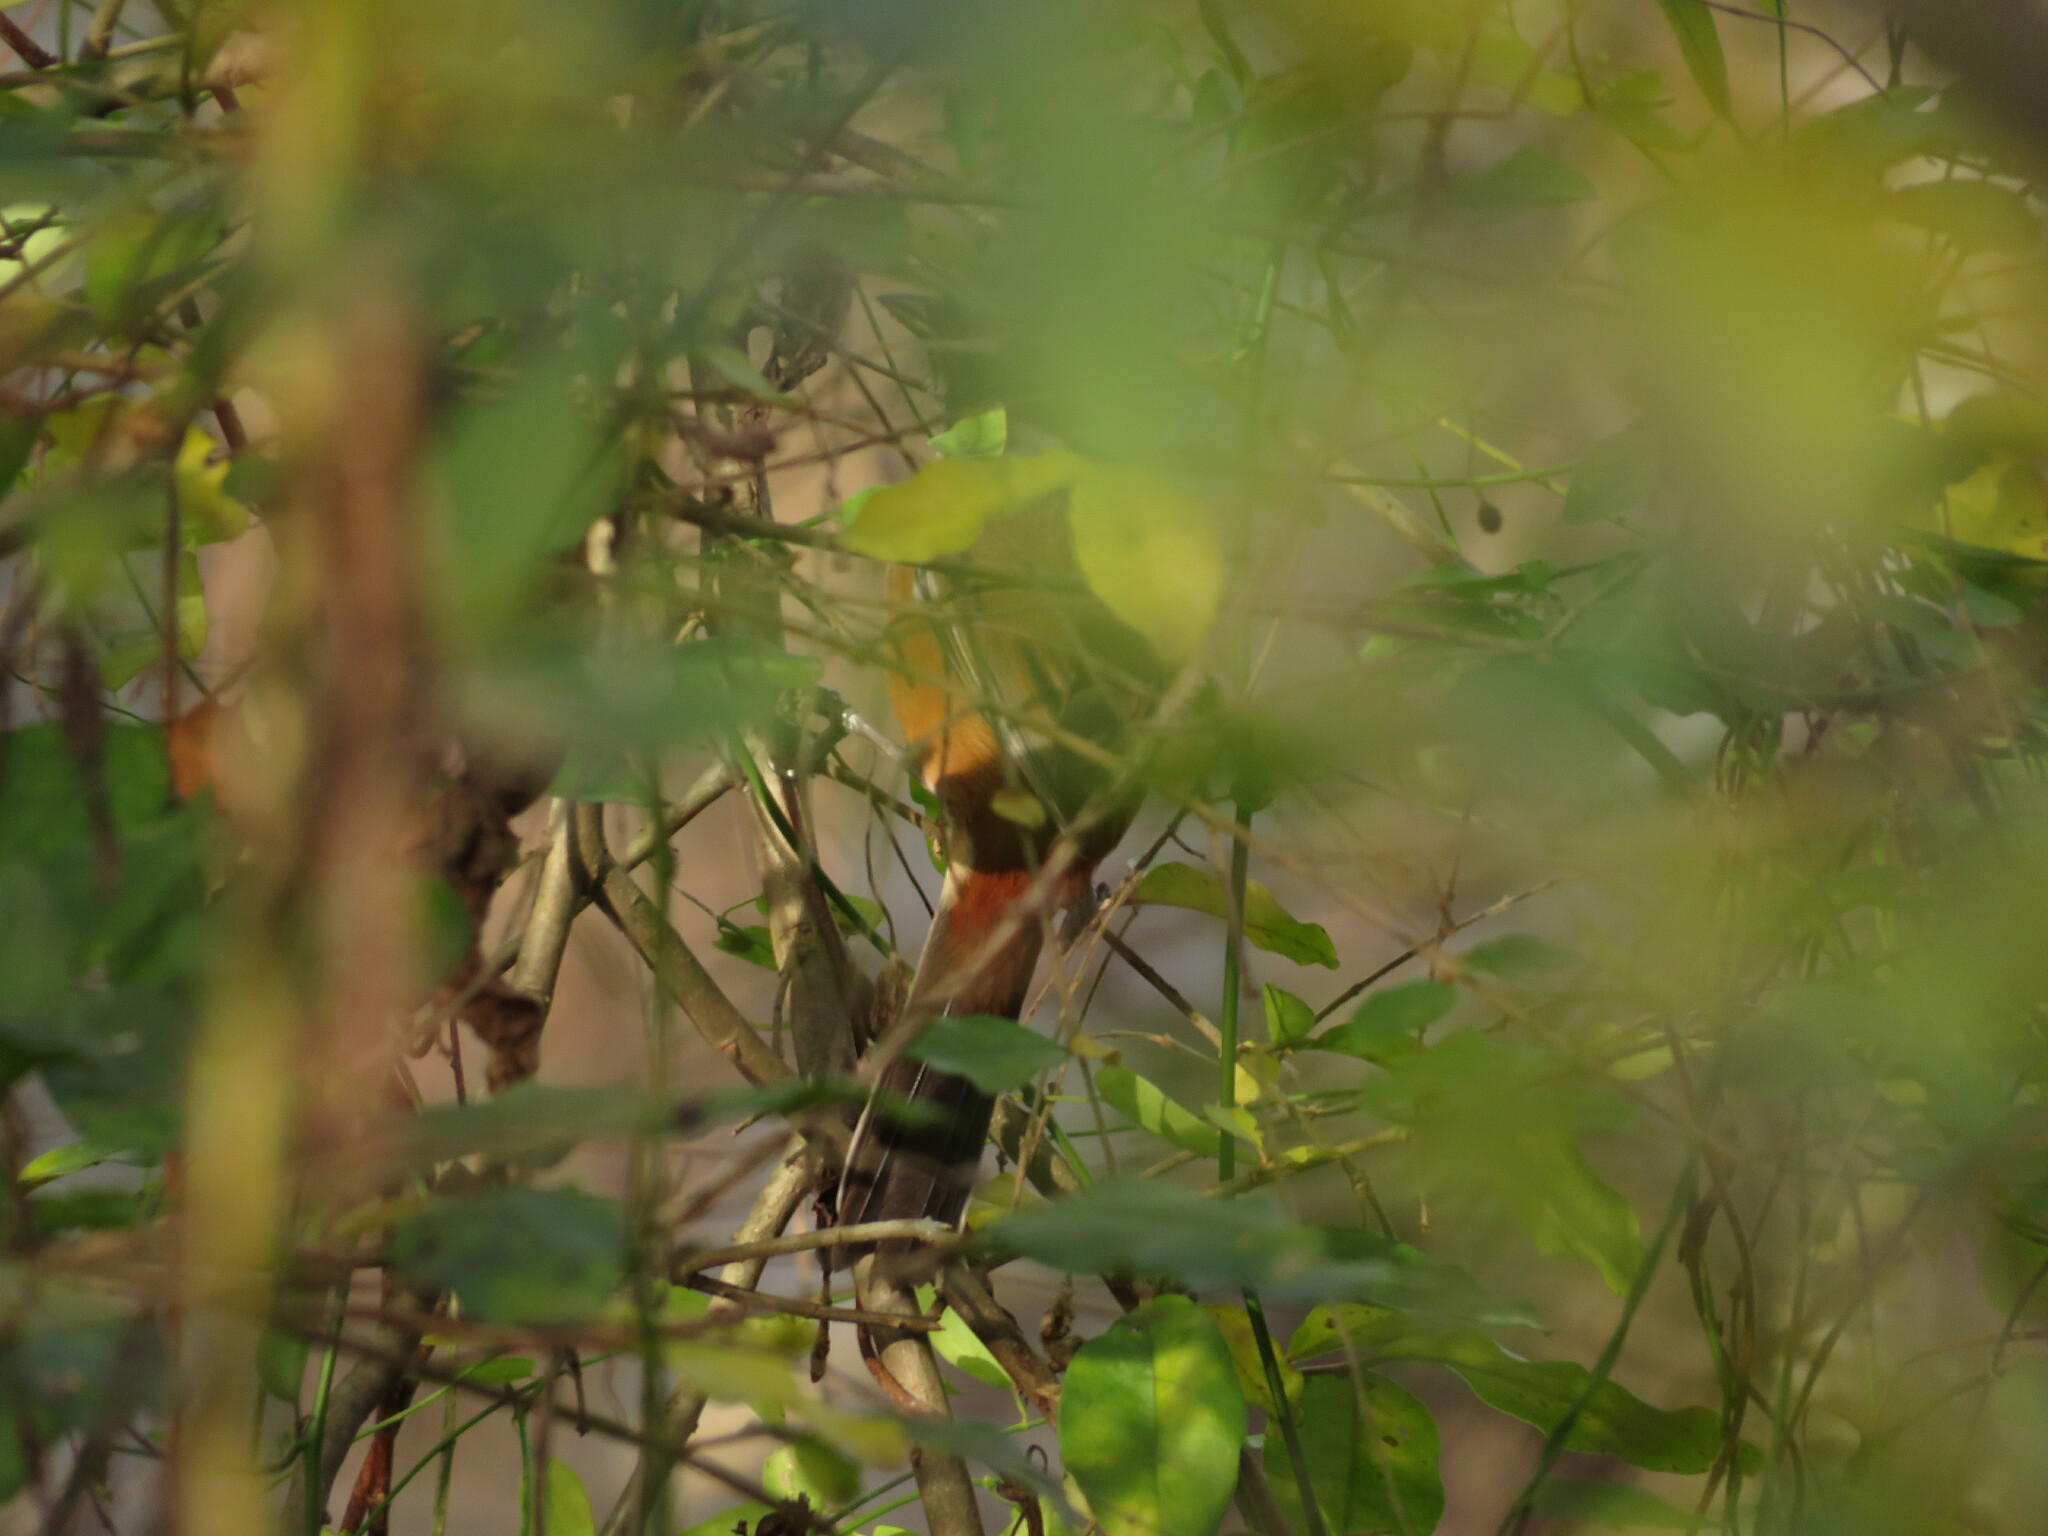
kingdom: Animalia
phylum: Chordata
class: Aves
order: Passeriformes
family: Thraupidae
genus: Microspingus
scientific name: Microspingus cabanisi
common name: Gray-throated warbling-finch
